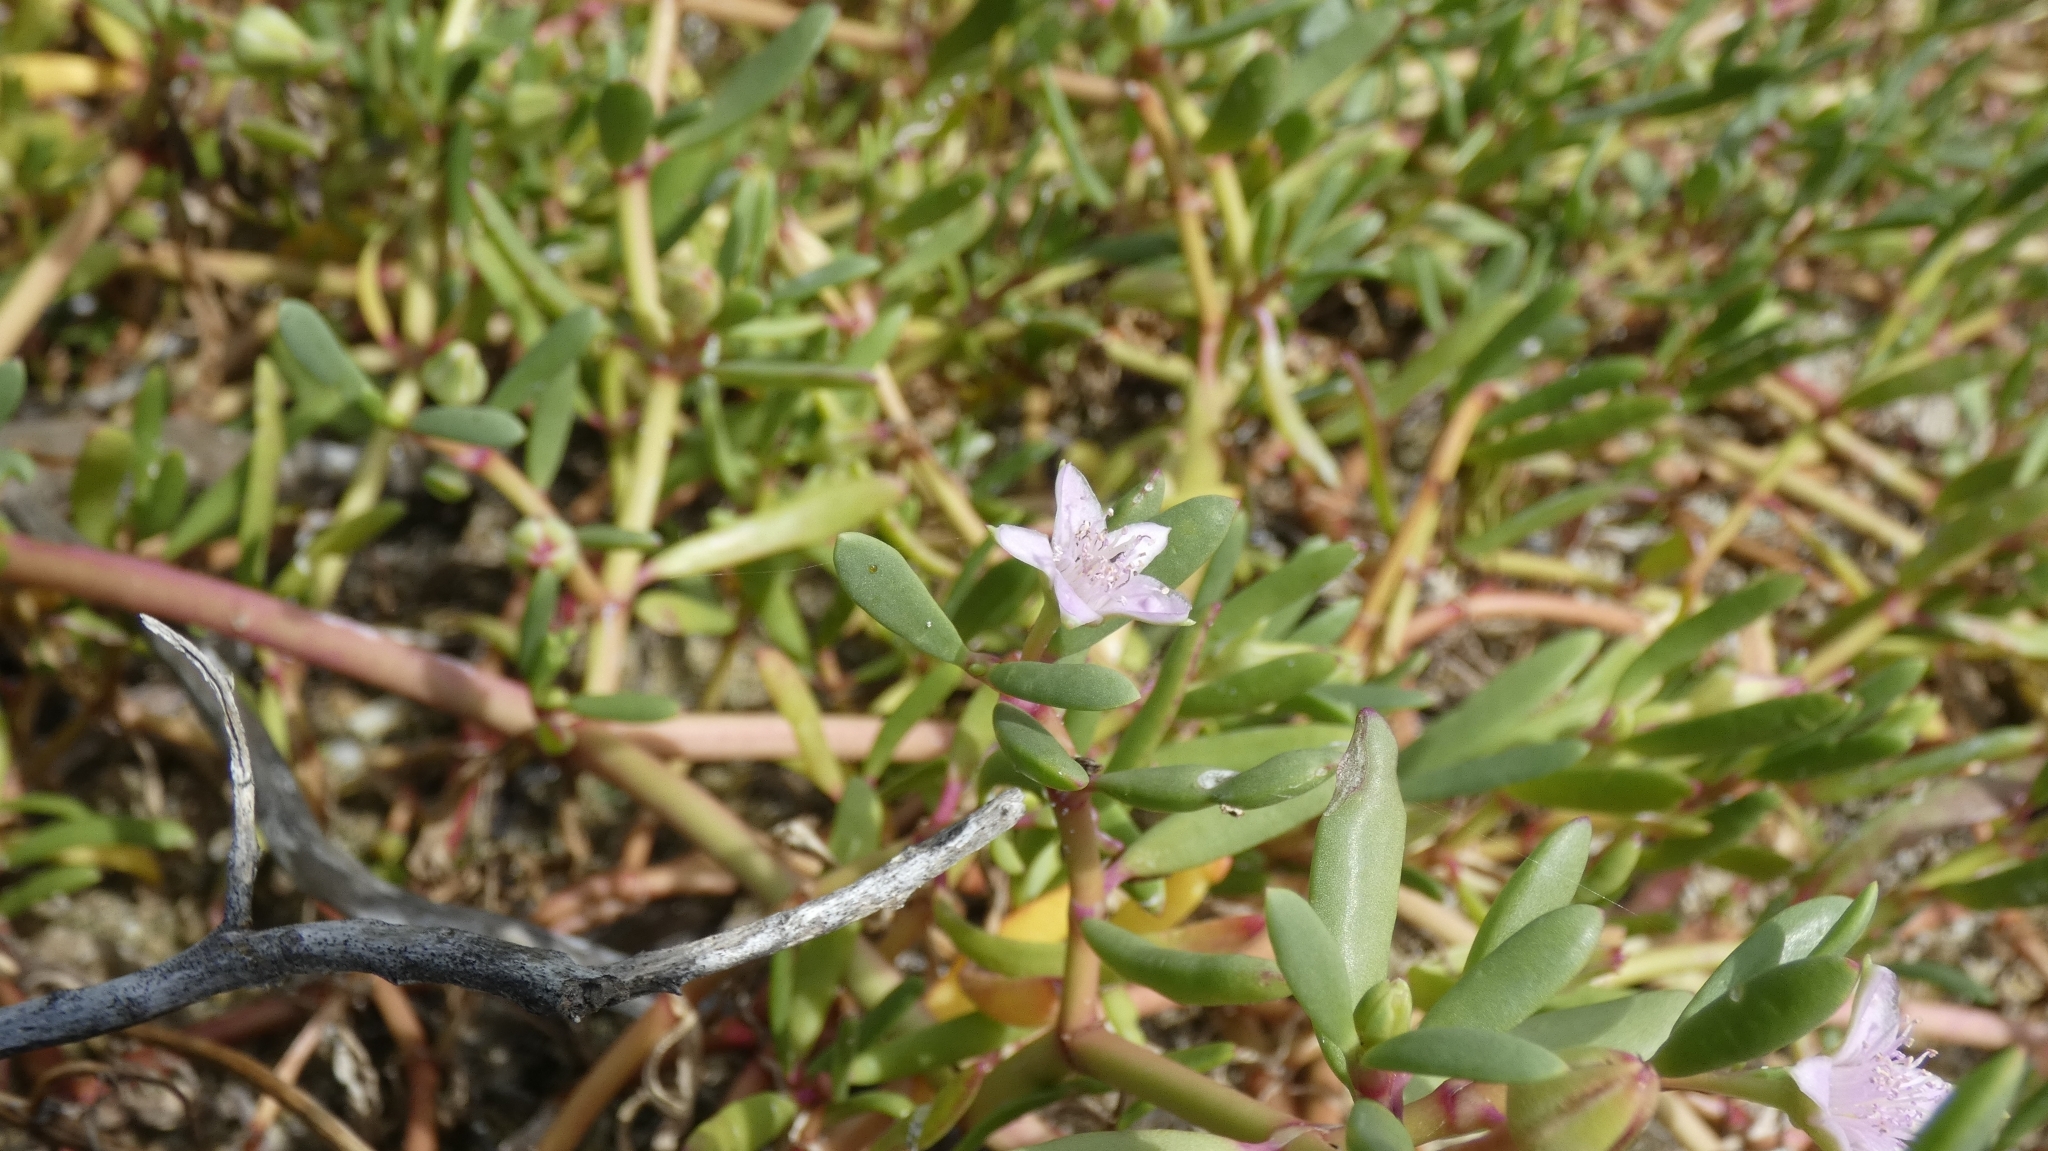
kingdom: Plantae
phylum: Tracheophyta
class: Magnoliopsida
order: Caryophyllales
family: Aizoaceae
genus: Sesuvium
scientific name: Sesuvium portulacastrum
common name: Sea-purslane
